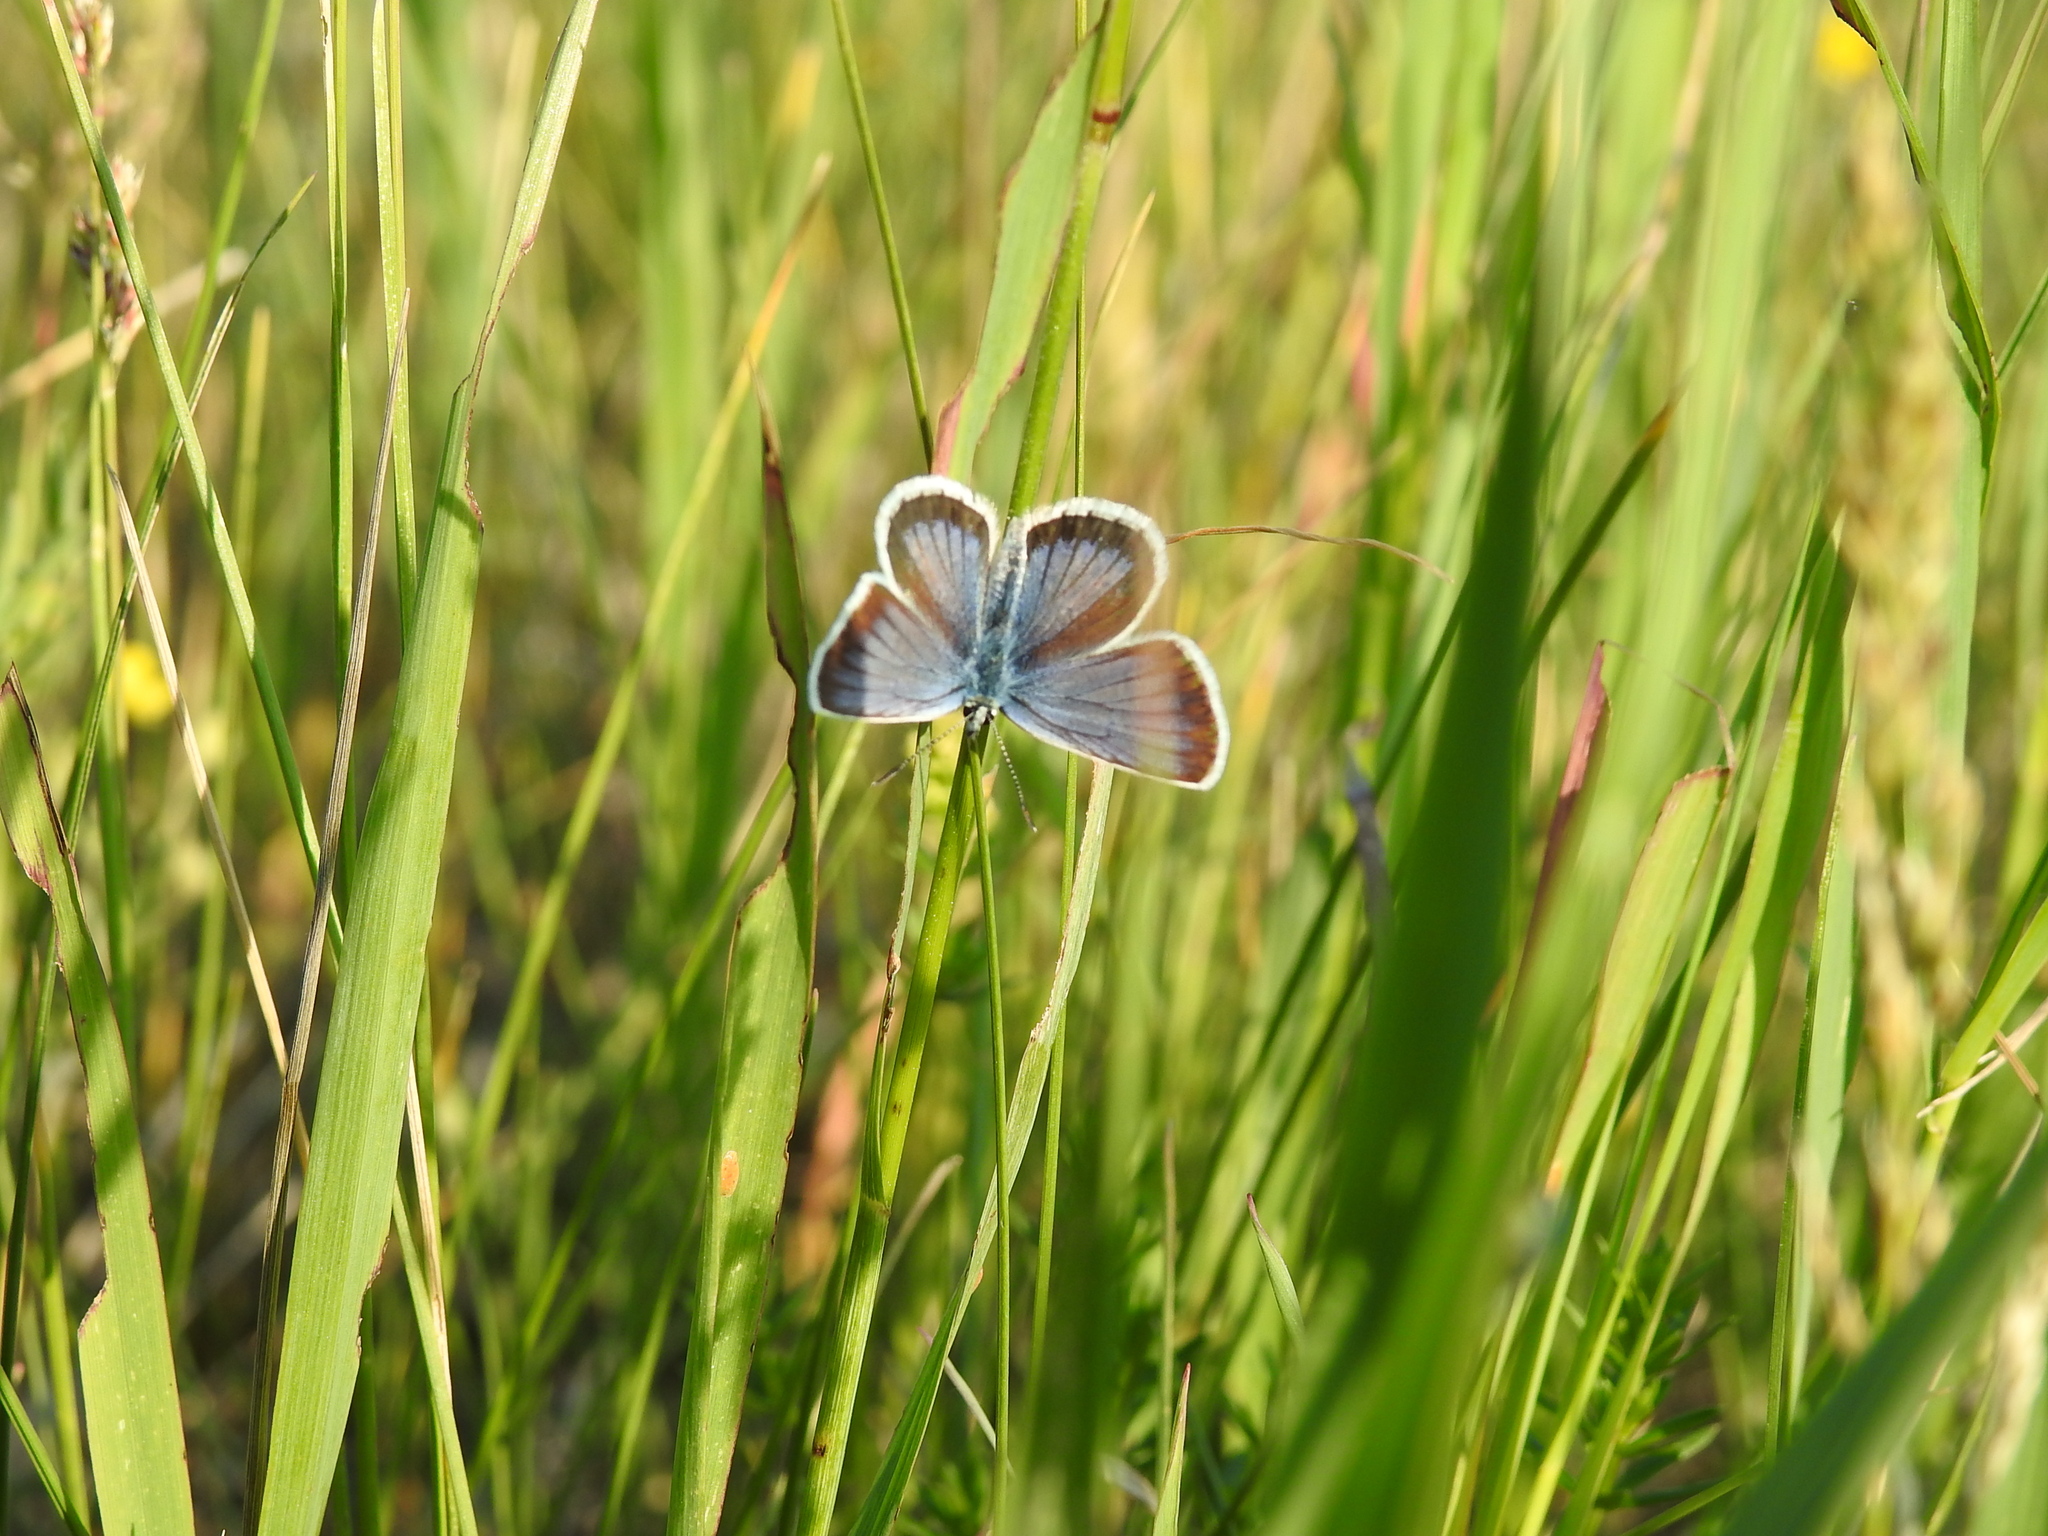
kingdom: Animalia
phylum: Arthropoda
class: Insecta
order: Lepidoptera
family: Lycaenidae
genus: Plebejus
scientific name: Plebejus argus
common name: Silver-studded blue
